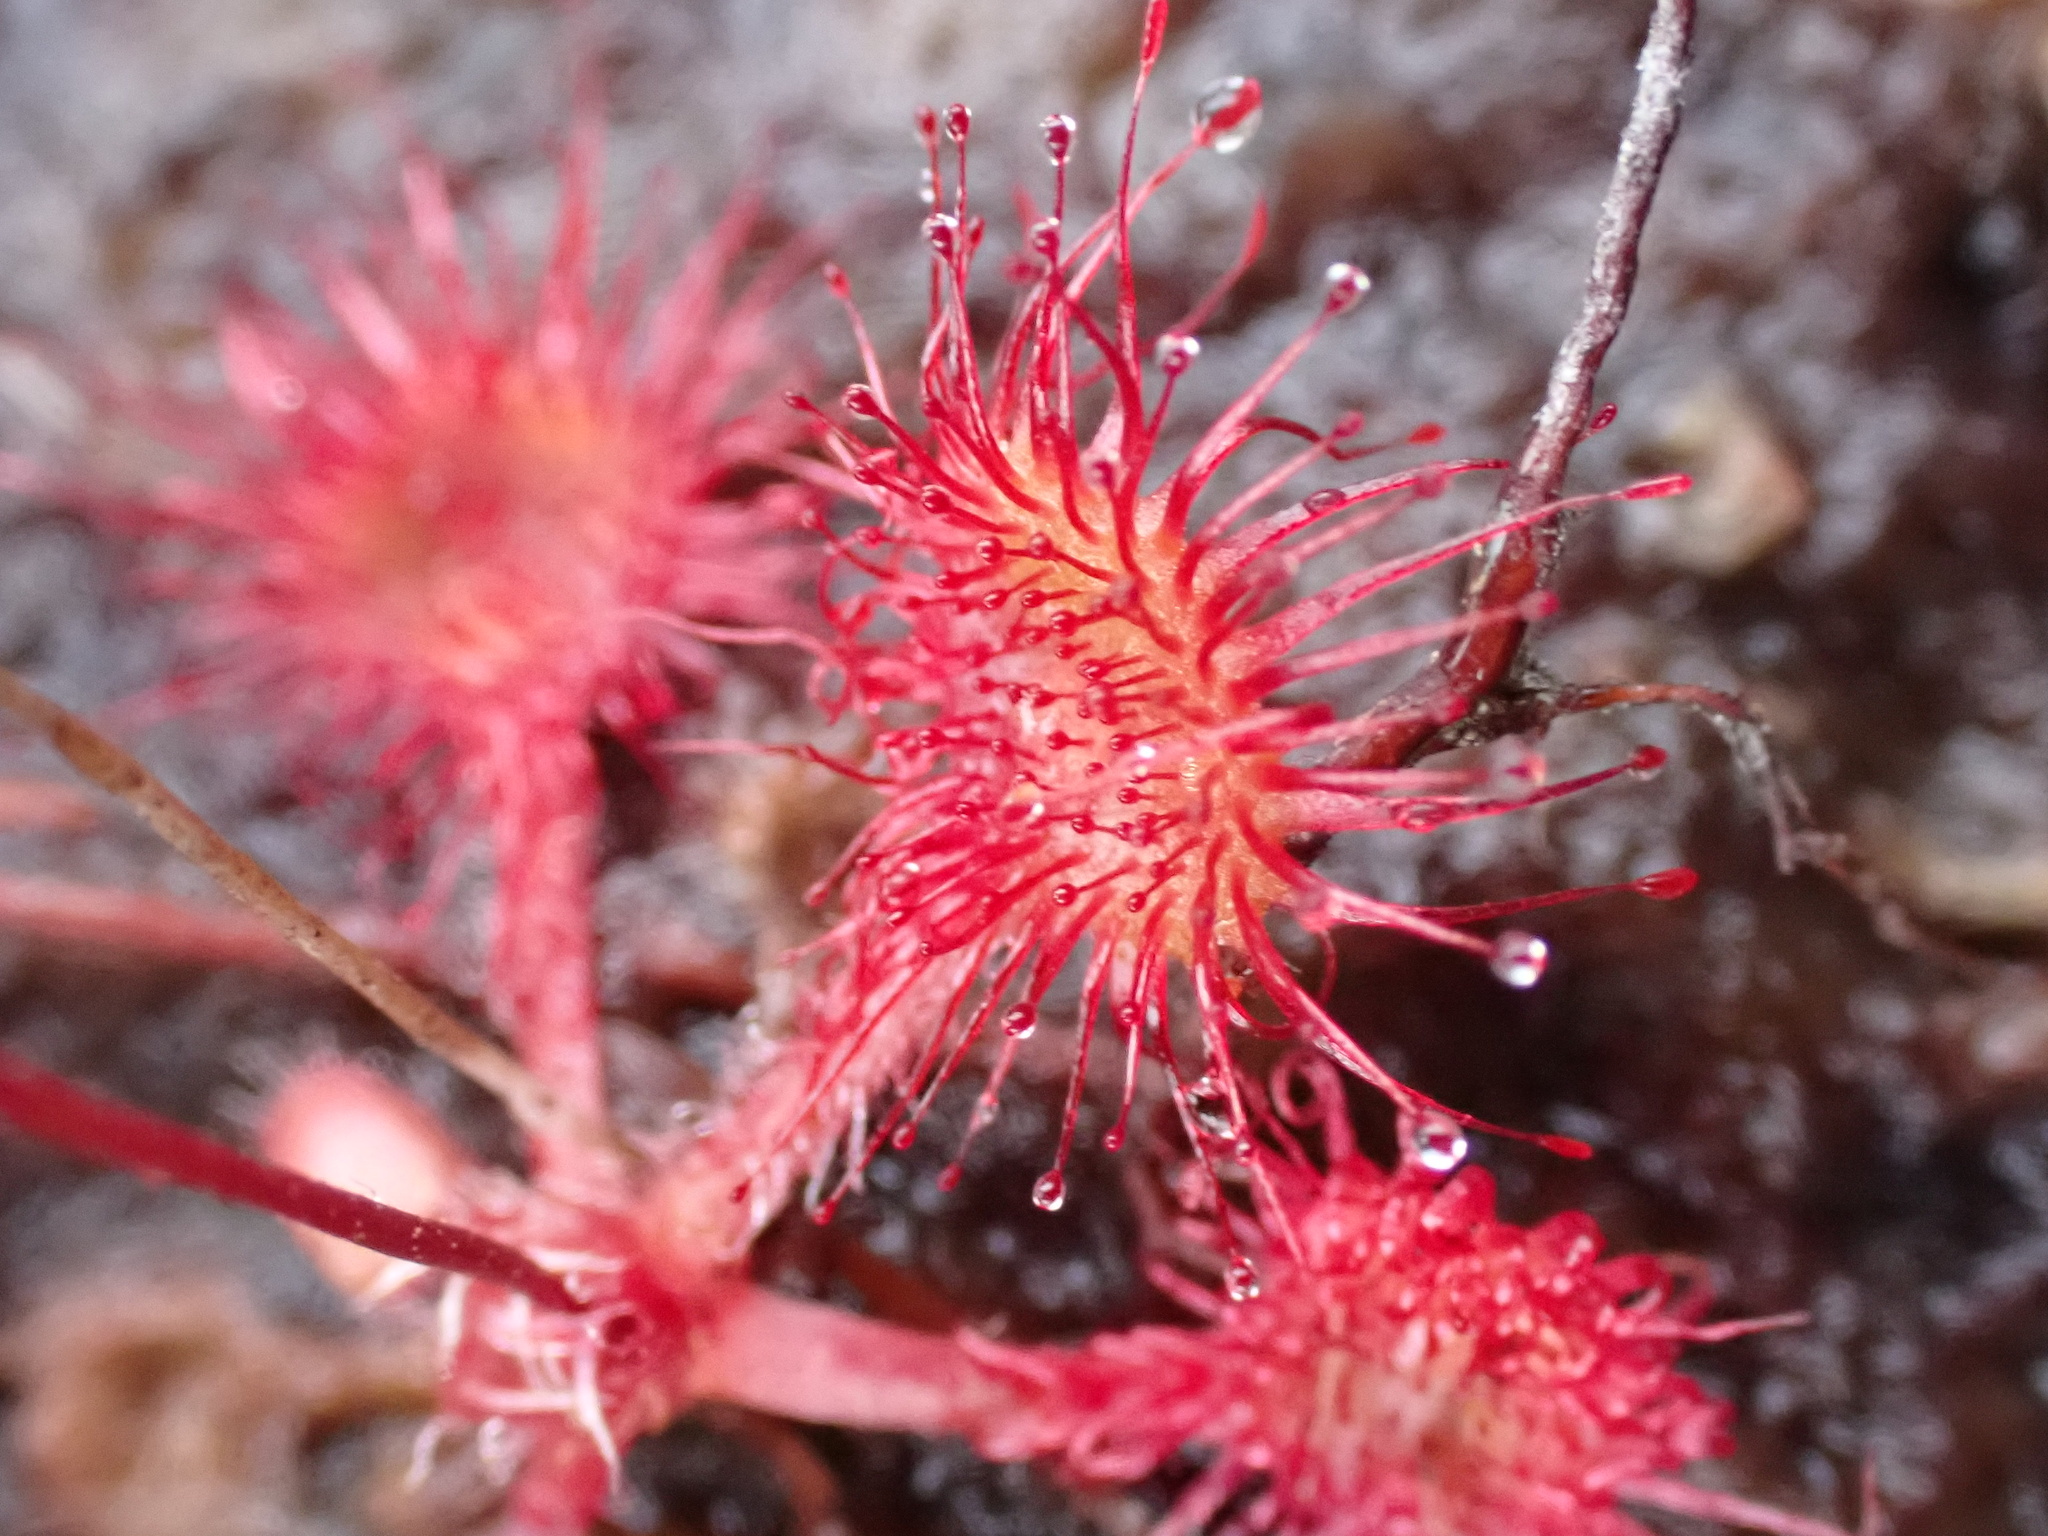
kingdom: Plantae
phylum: Tracheophyta
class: Magnoliopsida
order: Caryophyllales
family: Droseraceae
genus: Drosera
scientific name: Drosera rotundifolia
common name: Round-leaved sundew
